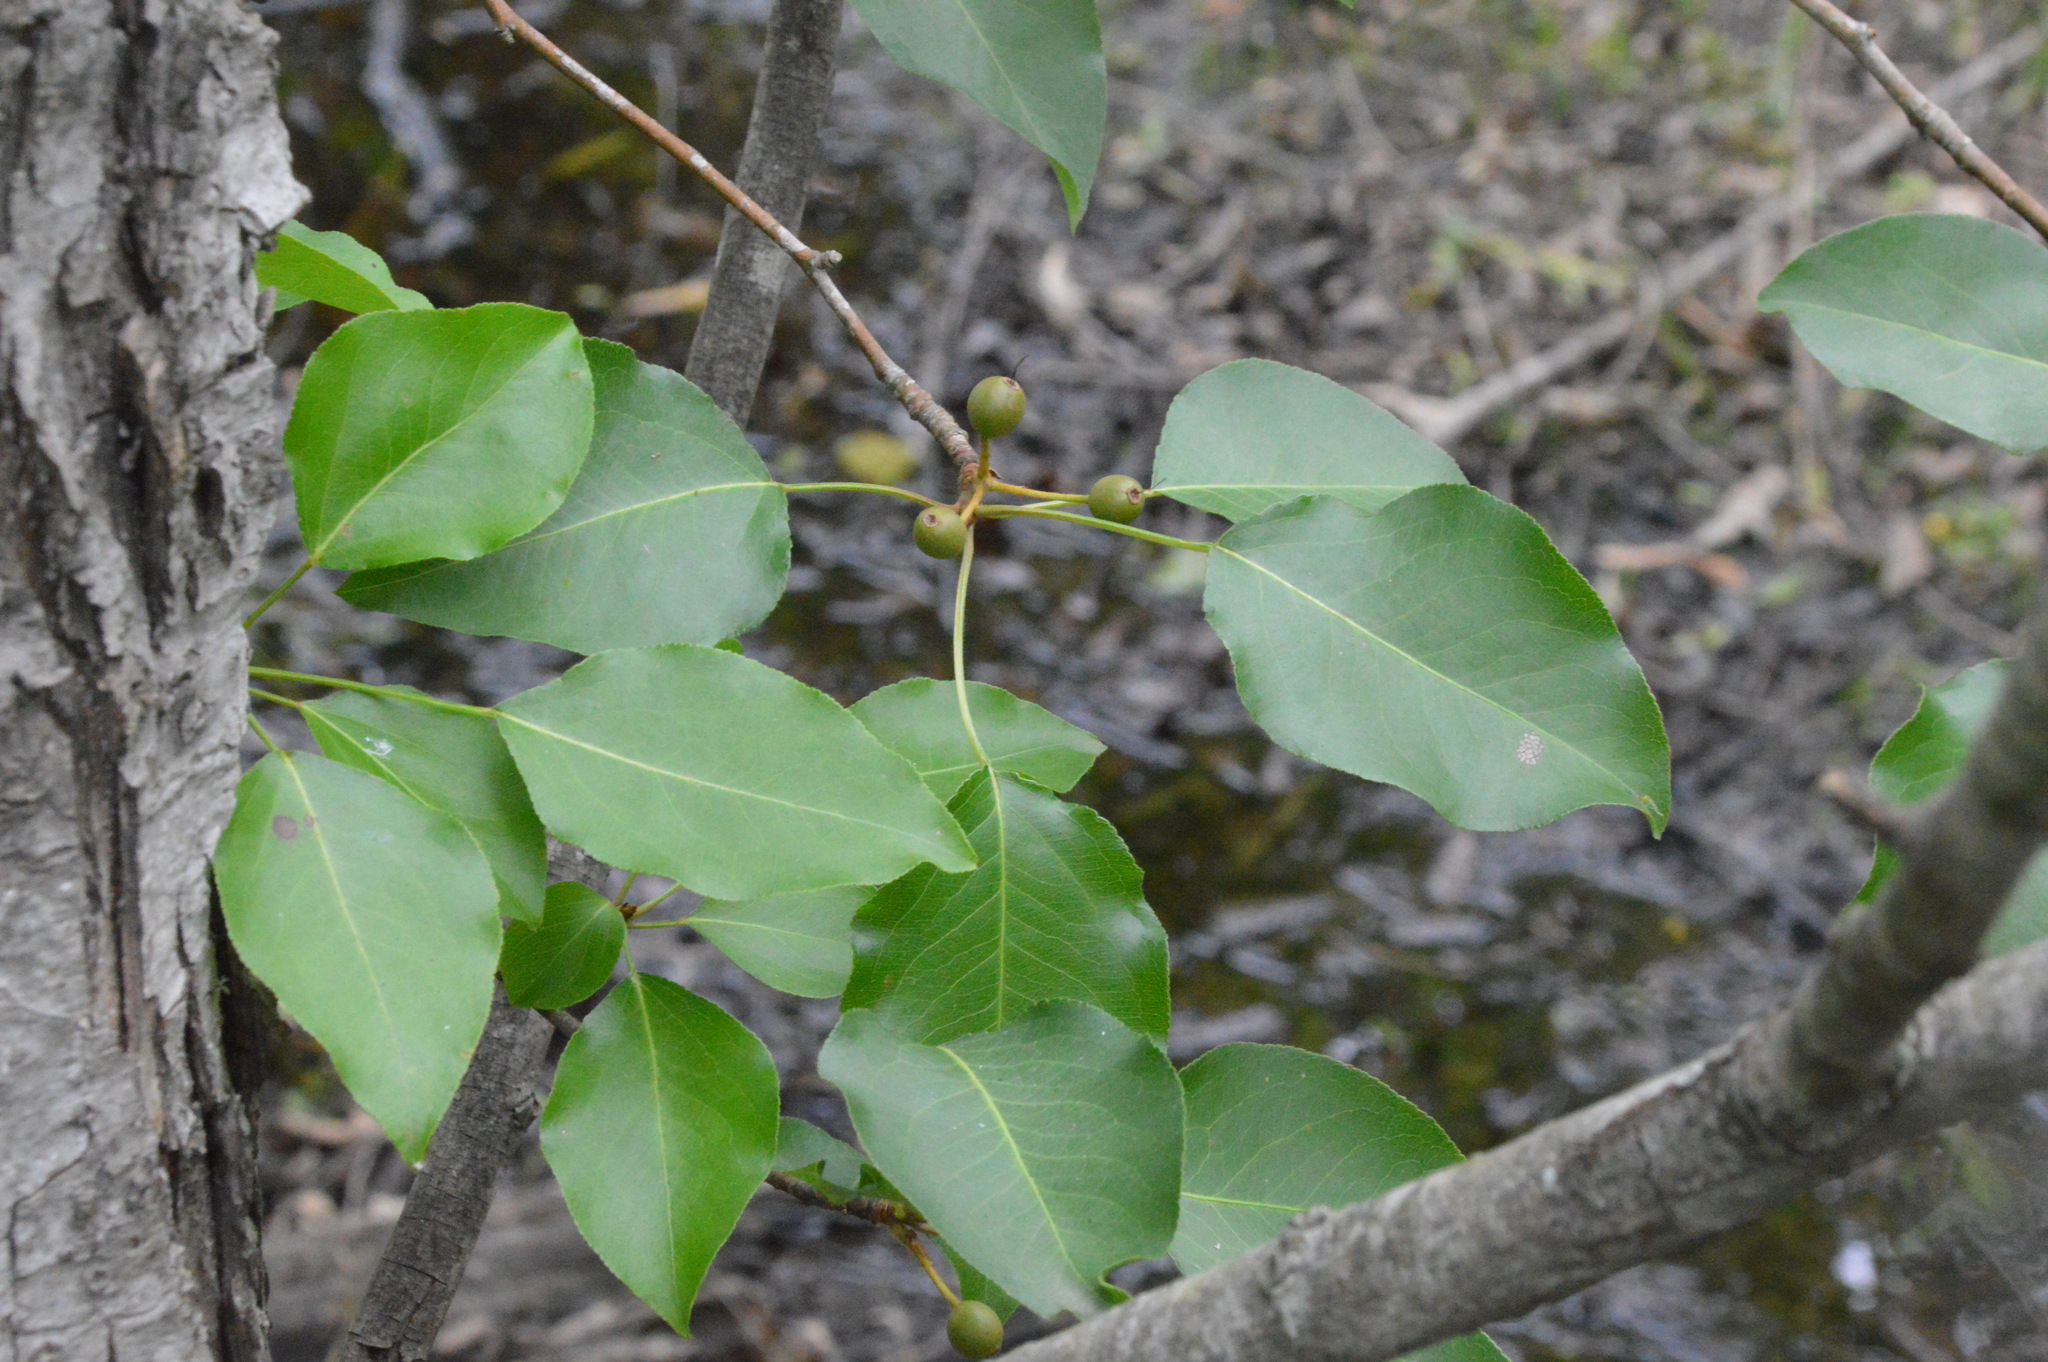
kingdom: Plantae
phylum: Tracheophyta
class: Magnoliopsida
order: Rosales
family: Rosaceae
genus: Pyrus
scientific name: Pyrus calleryana
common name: Callery pear
